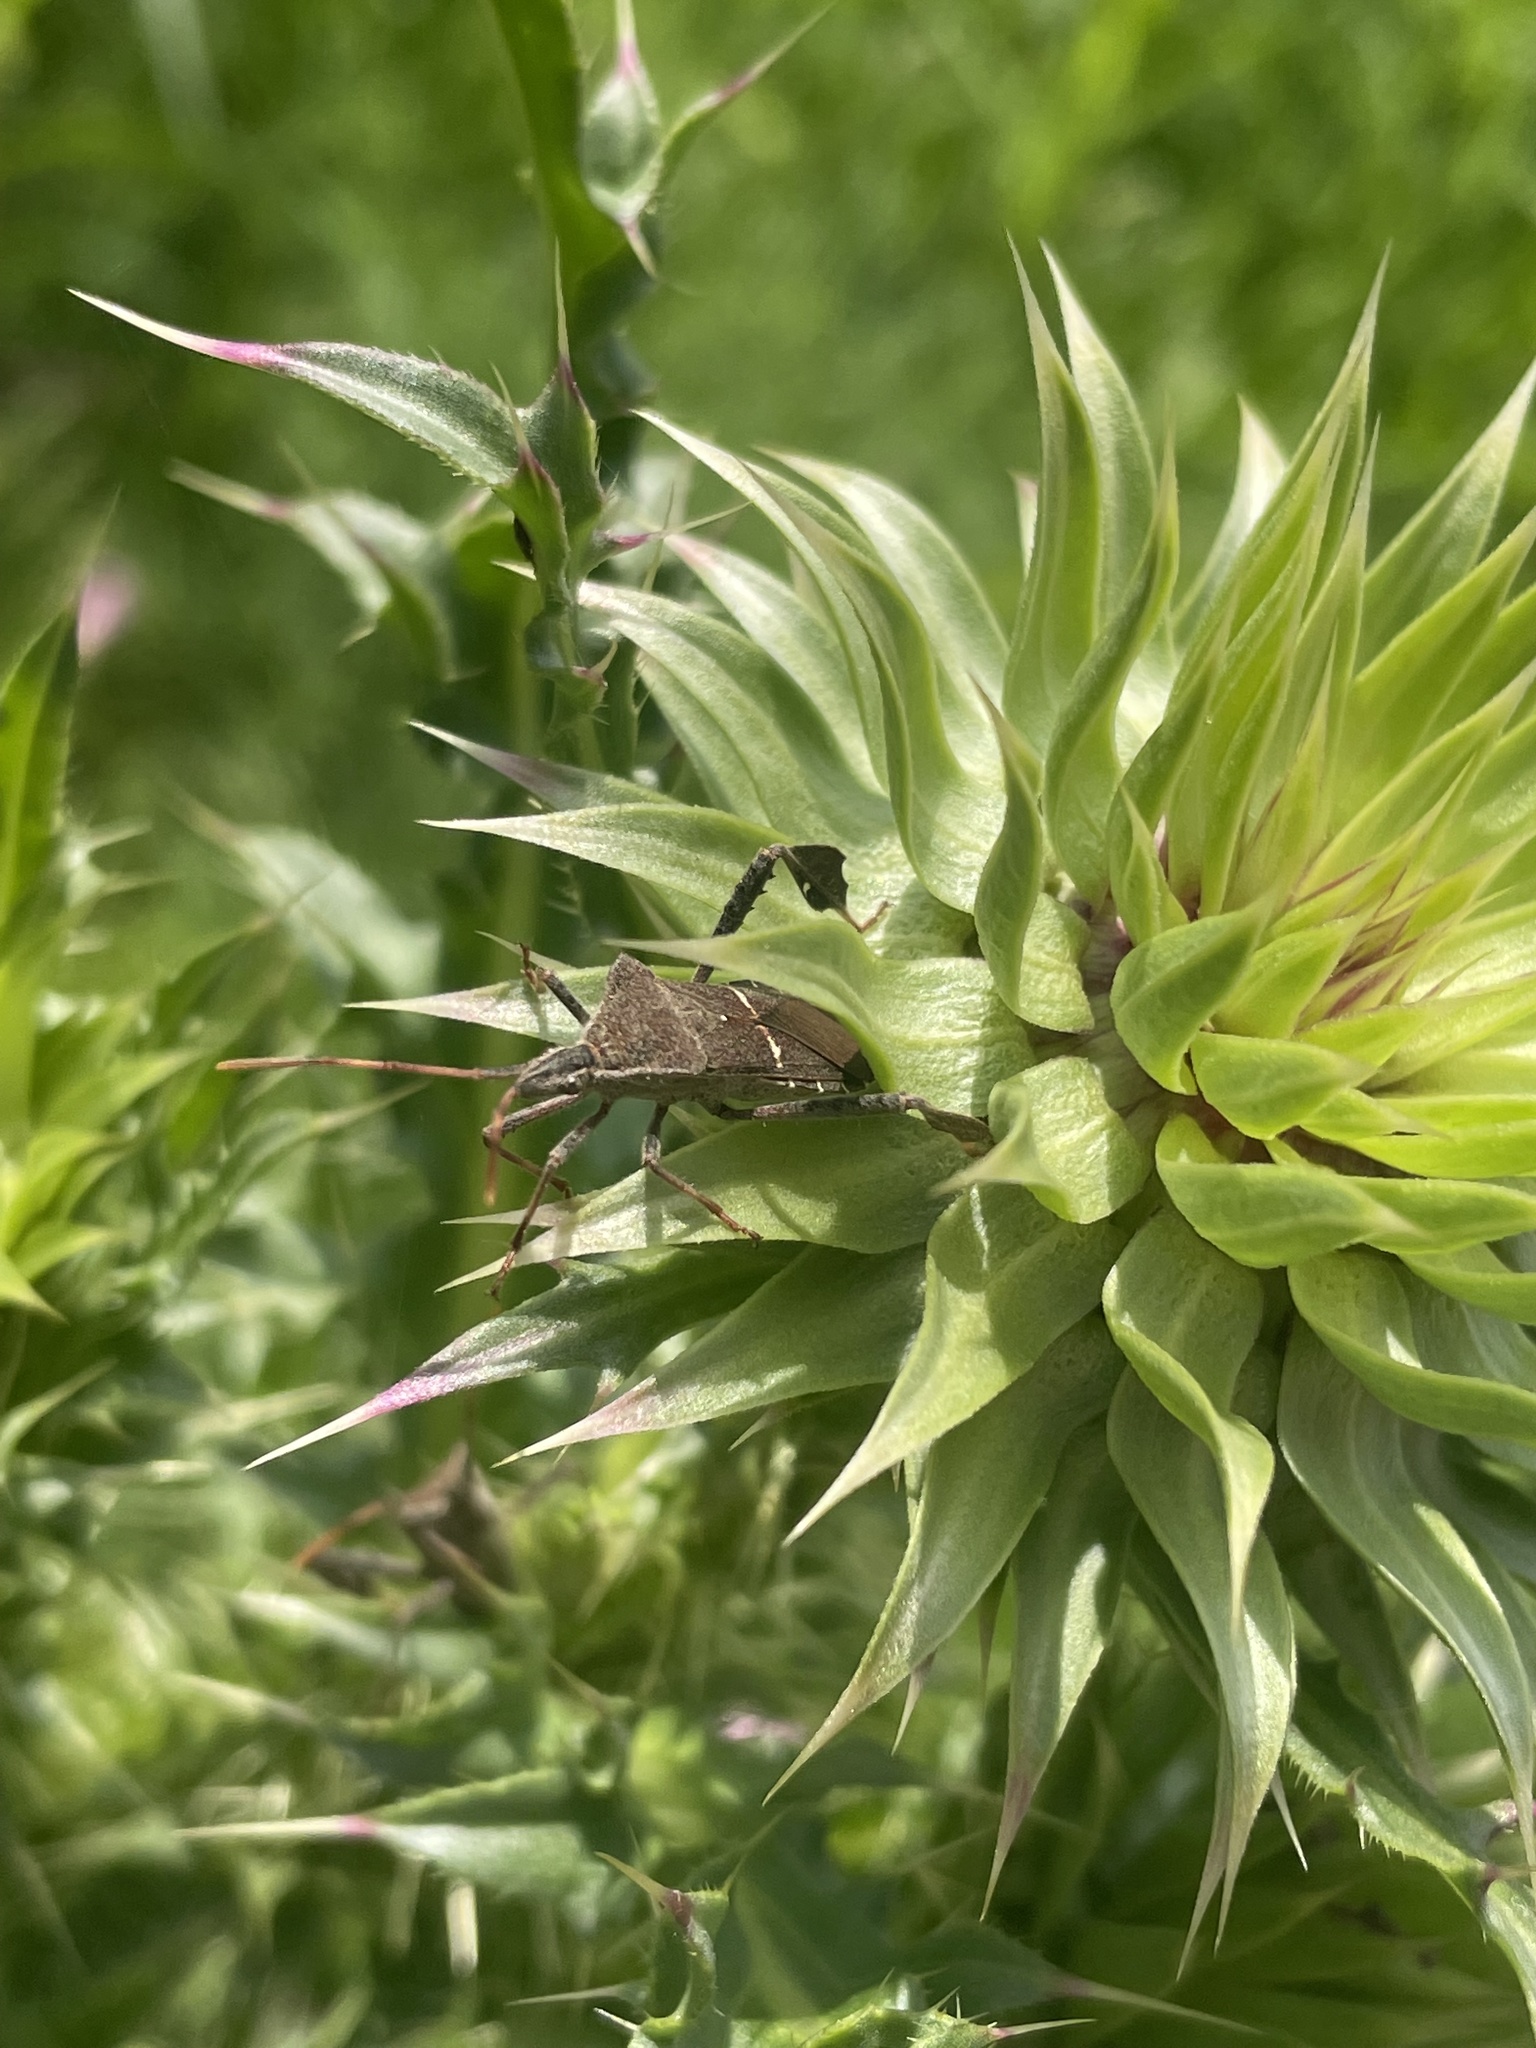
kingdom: Animalia
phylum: Arthropoda
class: Insecta
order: Hemiptera
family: Coreidae
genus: Leptoglossus
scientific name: Leptoglossus phyllopus
